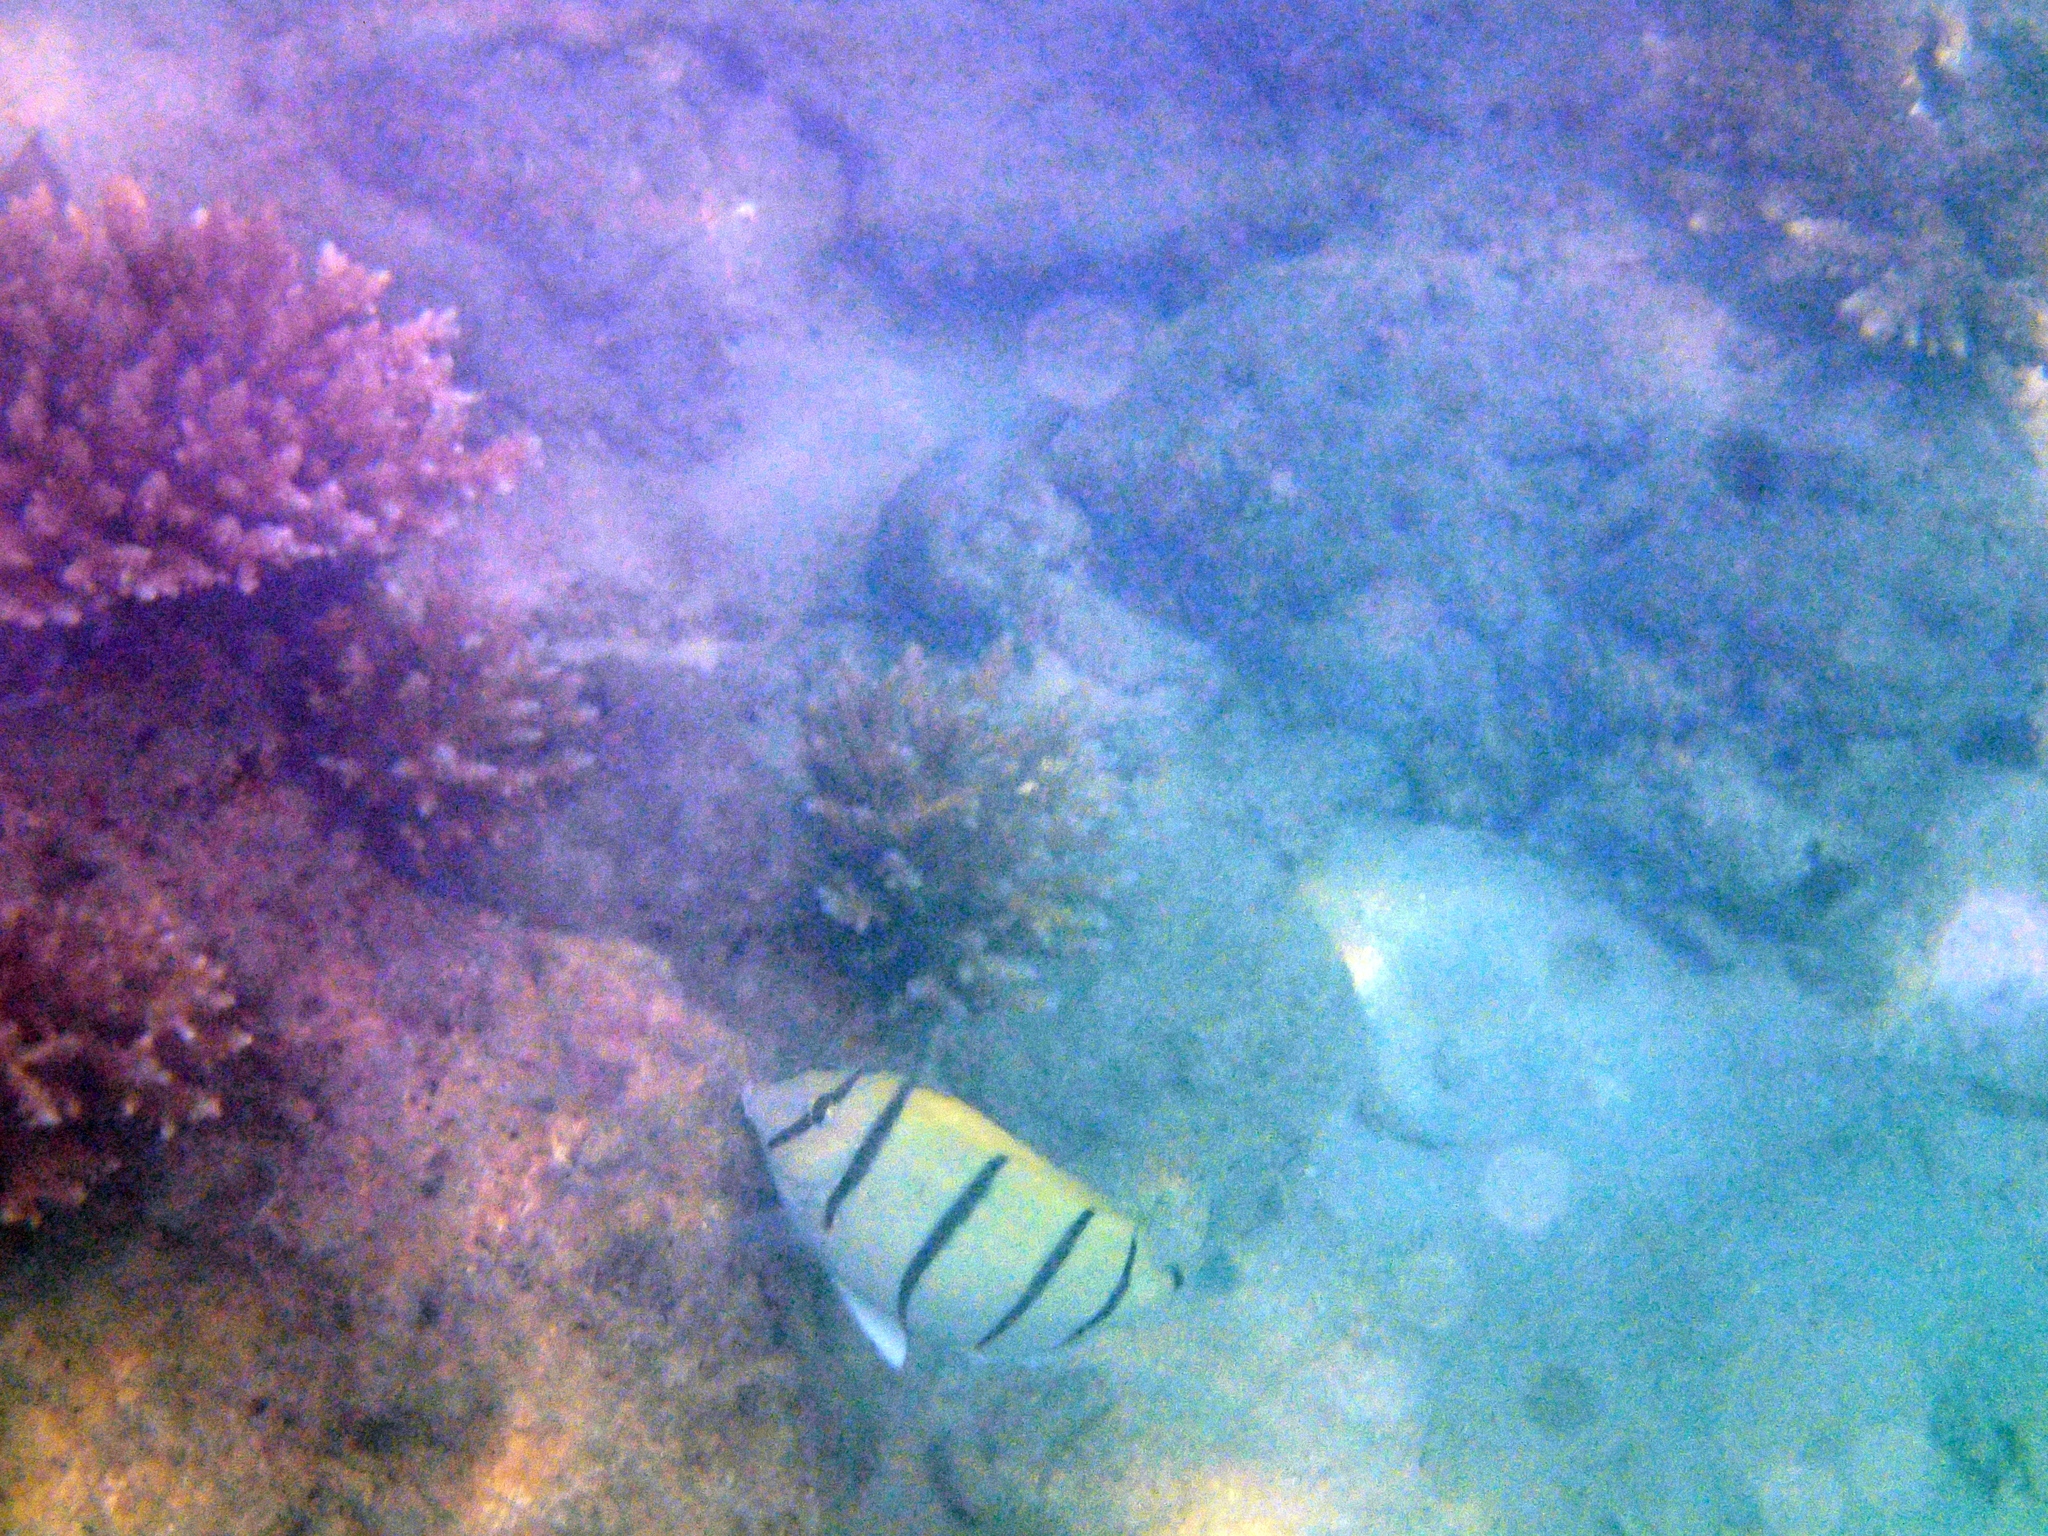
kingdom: Animalia
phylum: Chordata
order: Perciformes
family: Acanthuridae
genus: Acanthurus
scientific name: Acanthurus triostegus
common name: Convict surgeonfish
